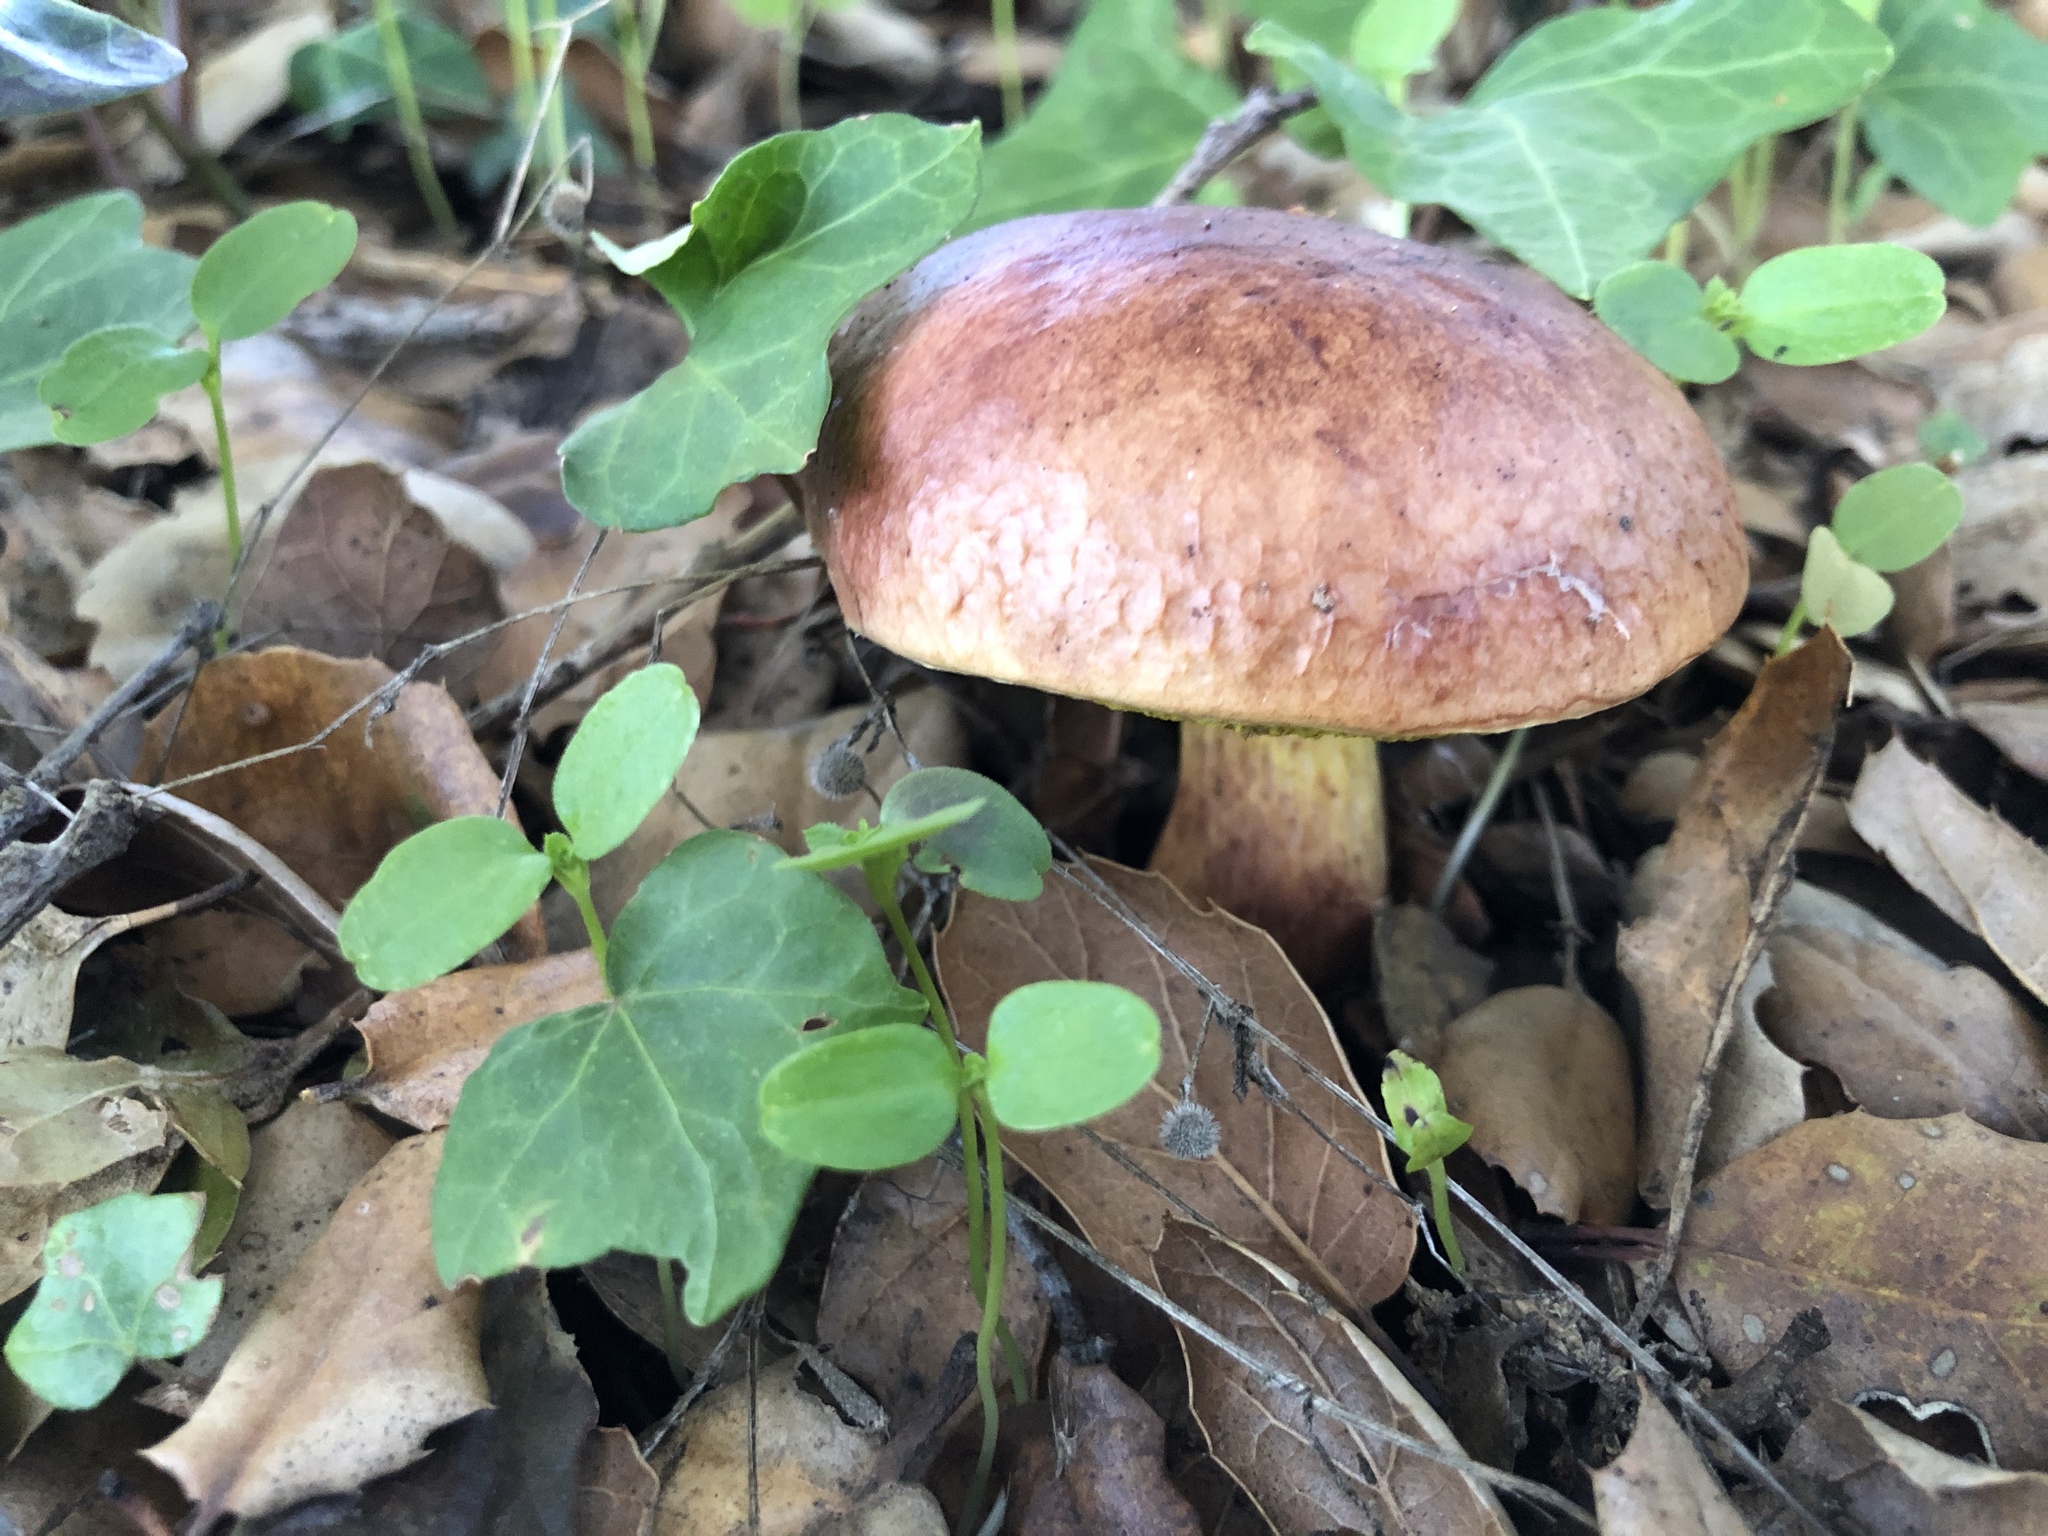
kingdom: Fungi
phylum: Basidiomycota
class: Agaricomycetes
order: Boletales
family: Boletaceae
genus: Aureoboletus
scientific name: Aureoboletus flaviporus
